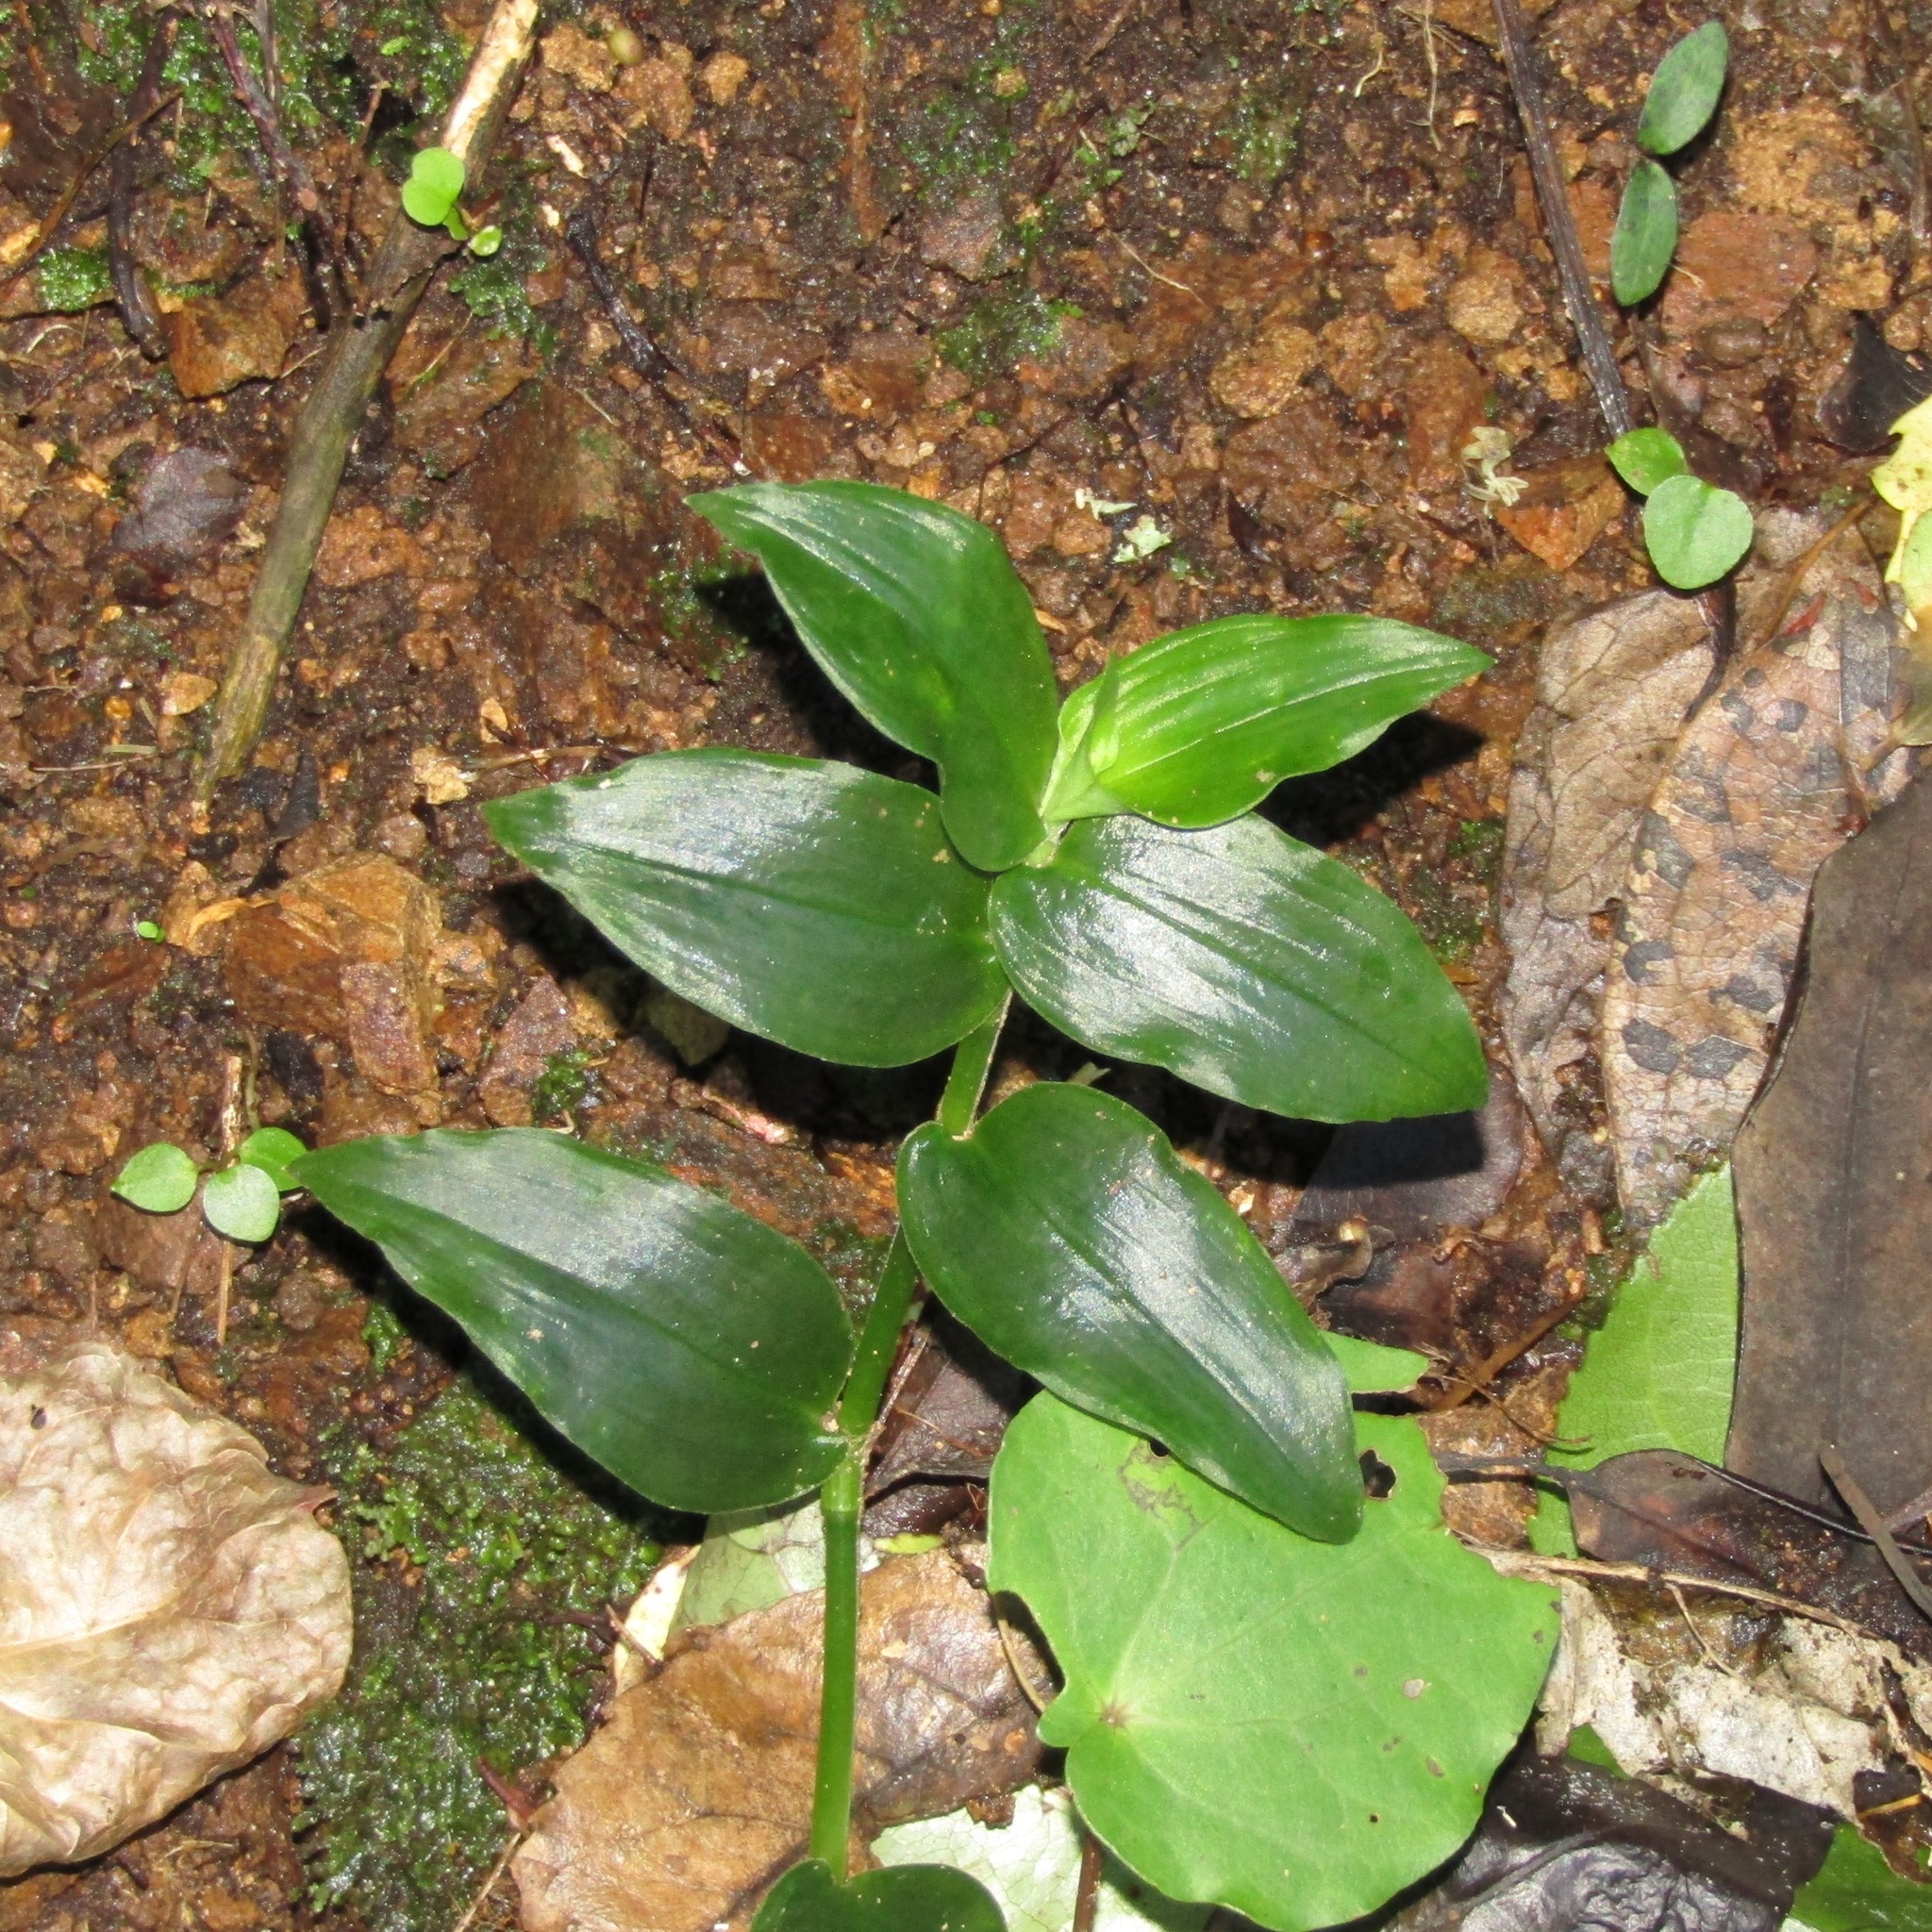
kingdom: Plantae
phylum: Tracheophyta
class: Liliopsida
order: Commelinales
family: Commelinaceae
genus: Tradescantia
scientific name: Tradescantia fluminensis
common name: Wandering-jew
